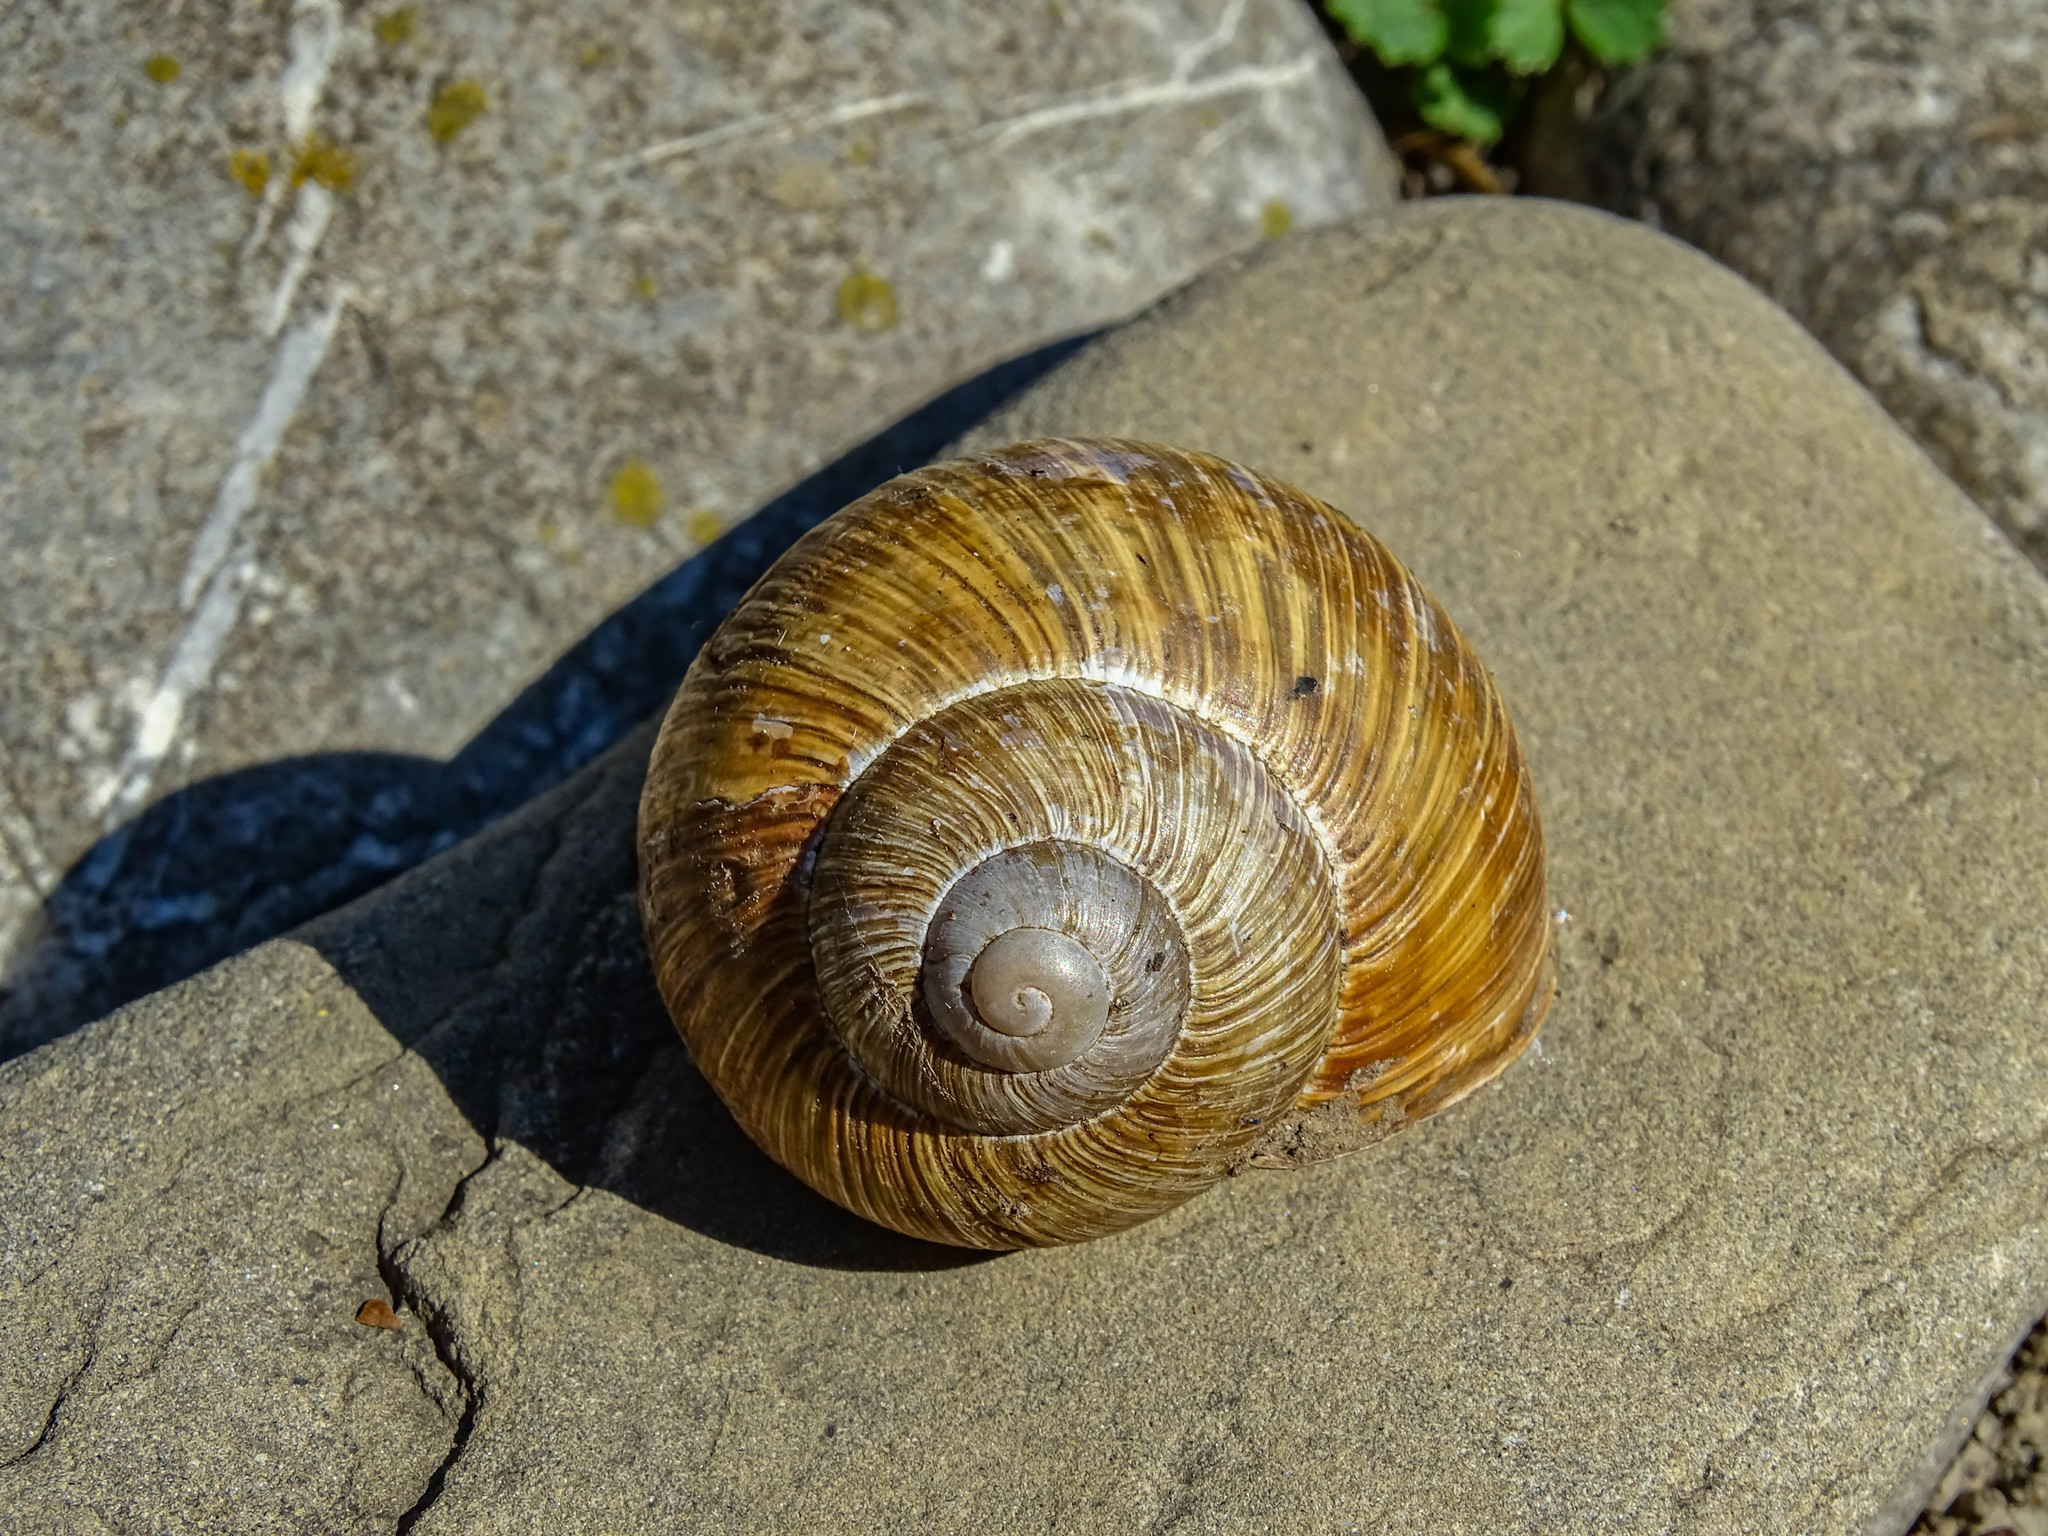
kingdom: Animalia
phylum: Mollusca
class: Gastropoda
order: Stylommatophora
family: Helicidae
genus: Helix
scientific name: Helix pomatia
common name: Roman snail
